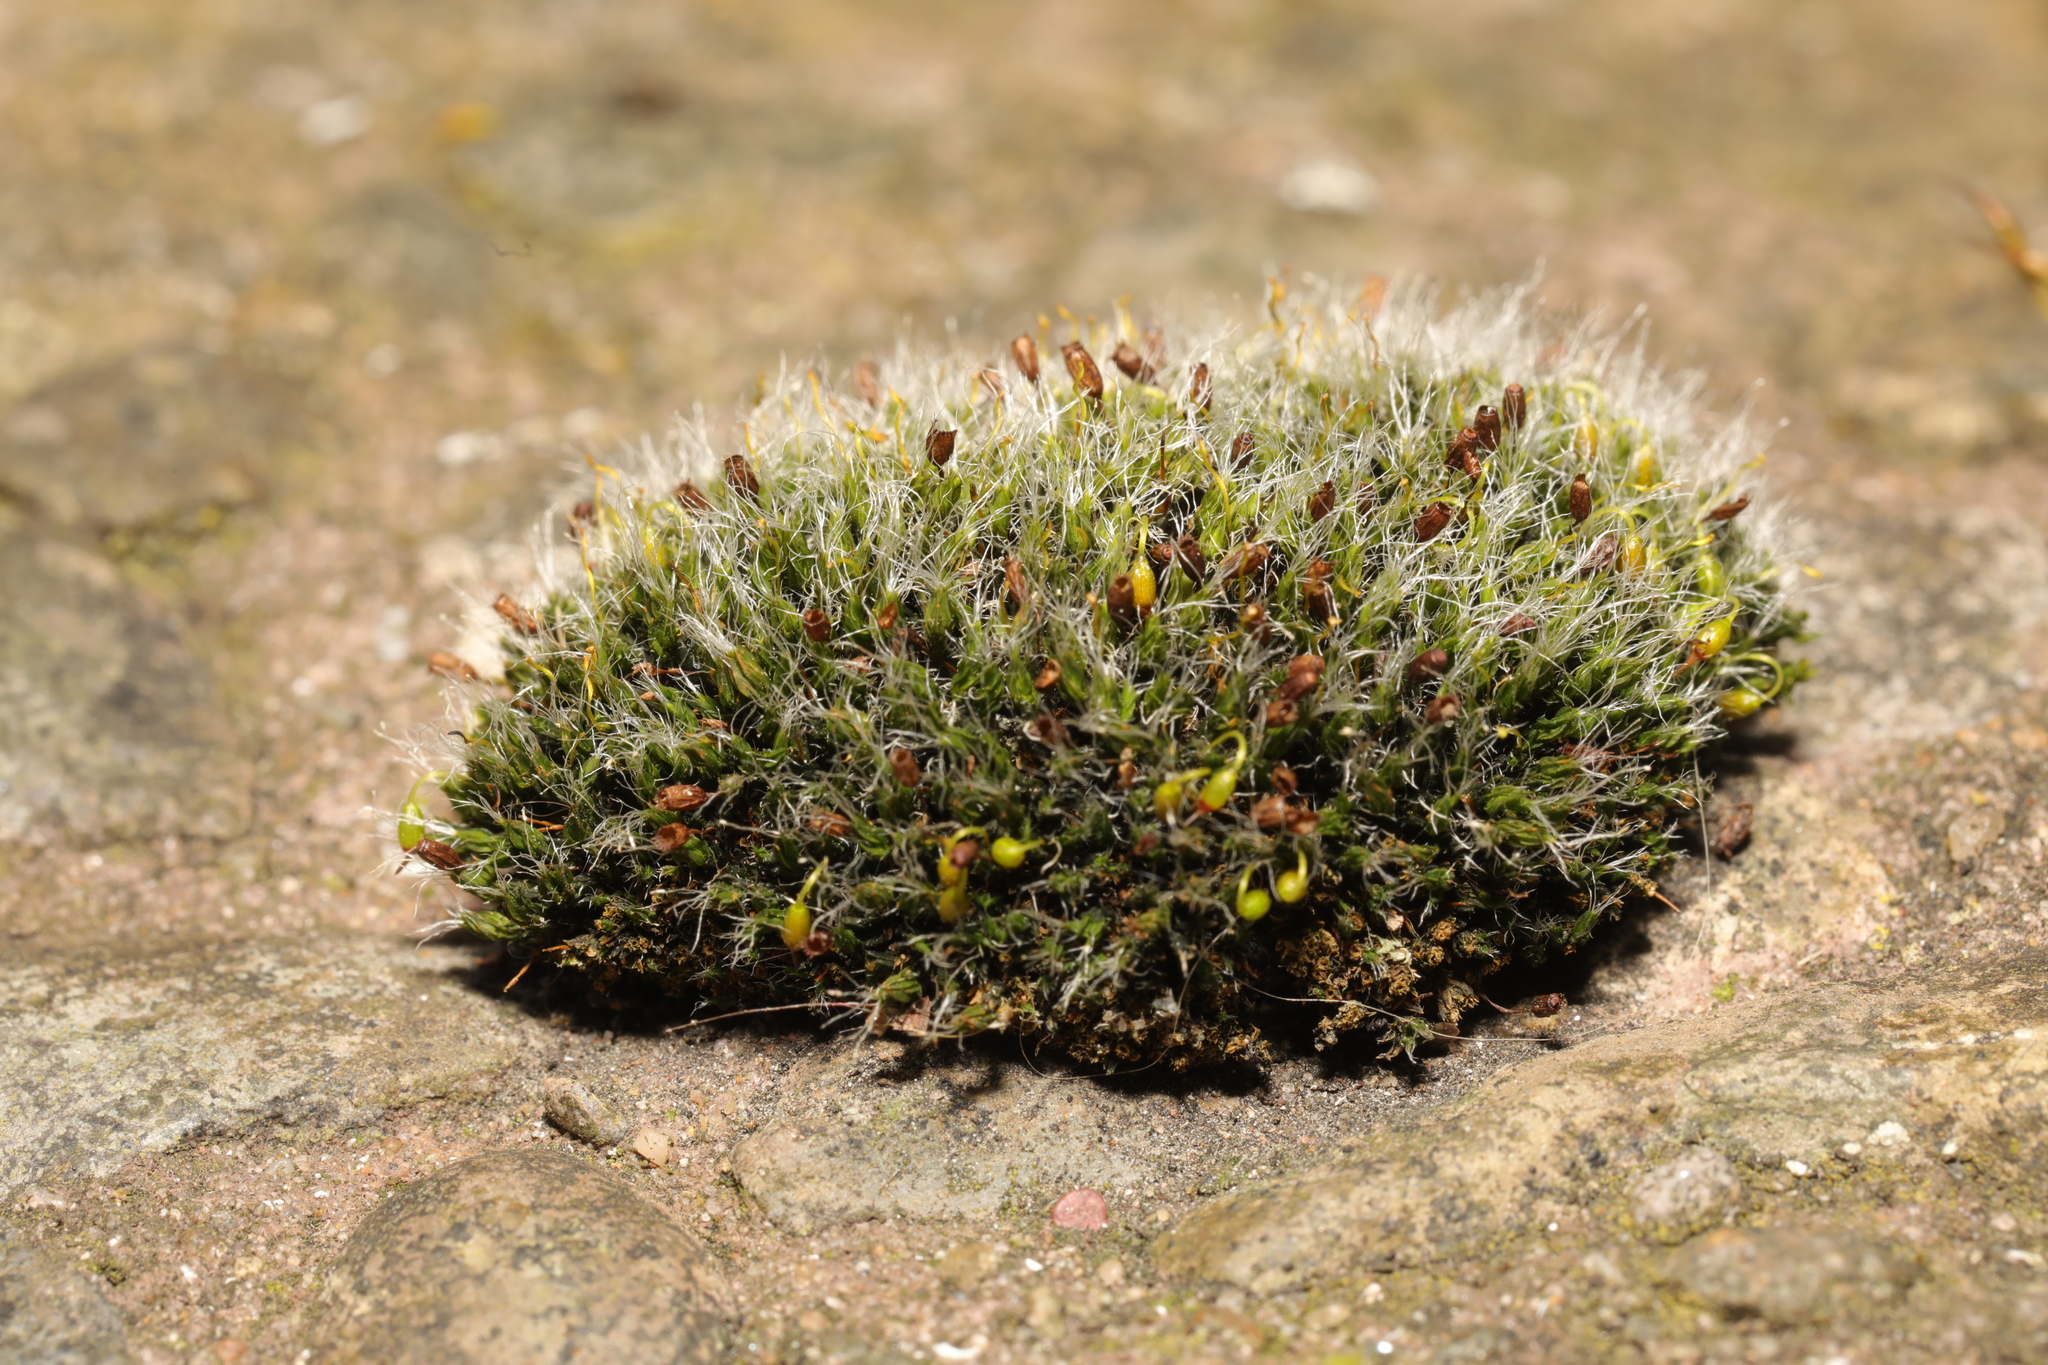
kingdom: Plantae
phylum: Bryophyta
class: Bryopsida
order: Grimmiales
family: Grimmiaceae
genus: Grimmia
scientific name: Grimmia pulvinata
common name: Grey-cushioned grimmia
